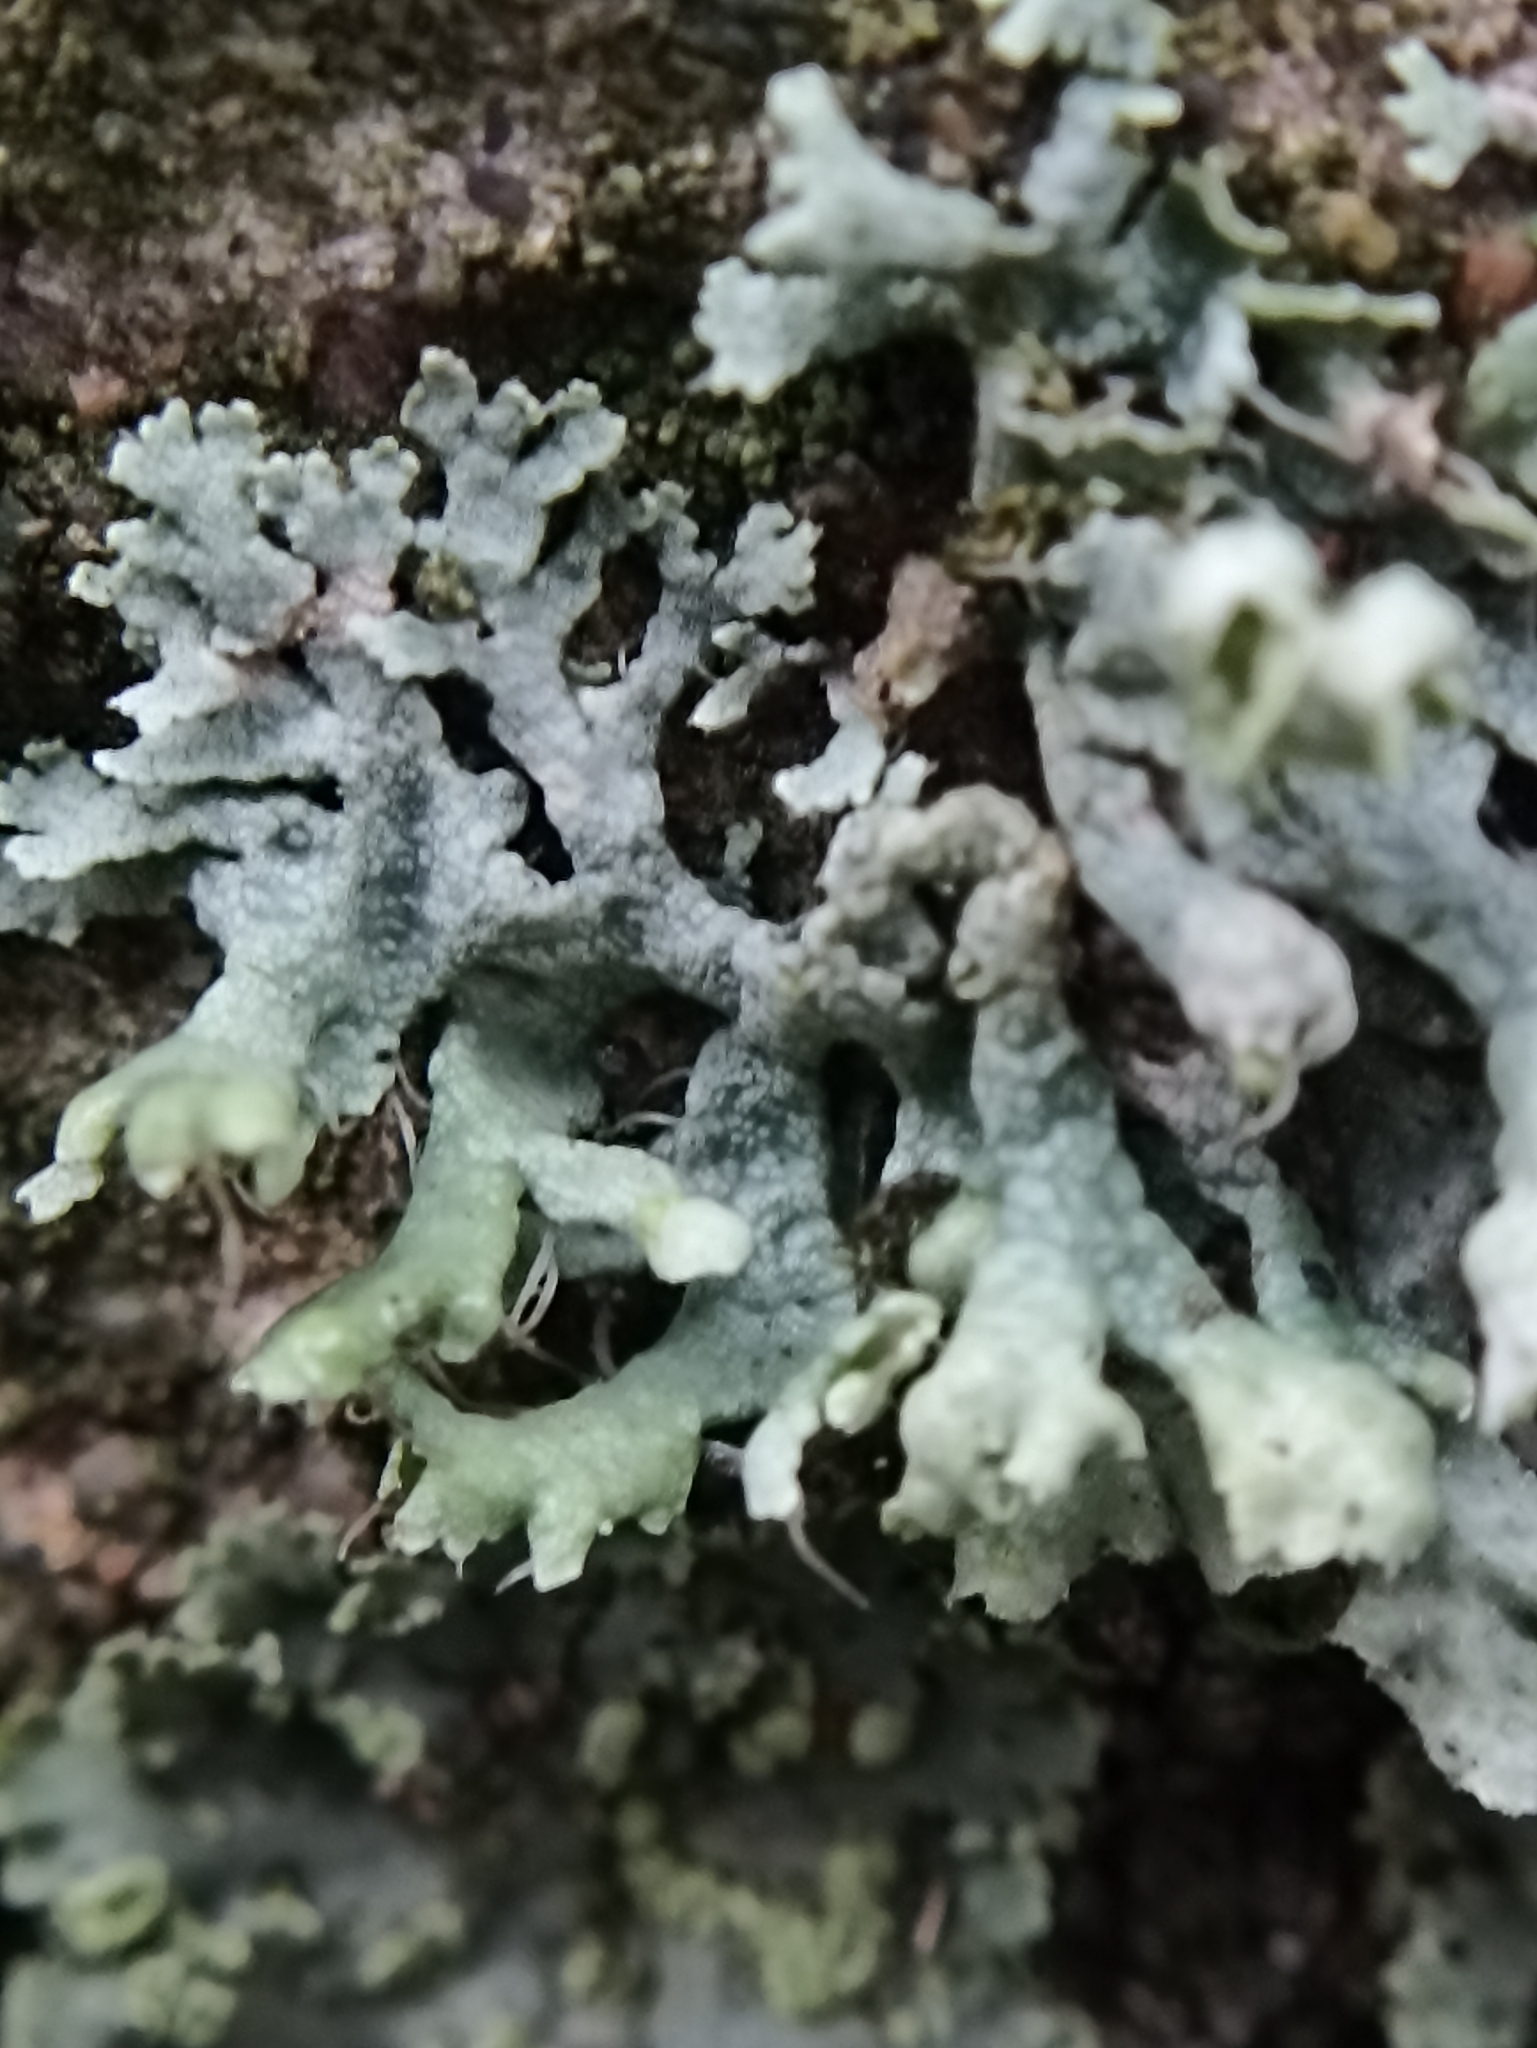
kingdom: Fungi
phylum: Ascomycota
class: Lecanoromycetes
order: Caliciales
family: Physciaceae
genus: Physcia
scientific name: Physcia adscendens
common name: Hooded rosette lichen
